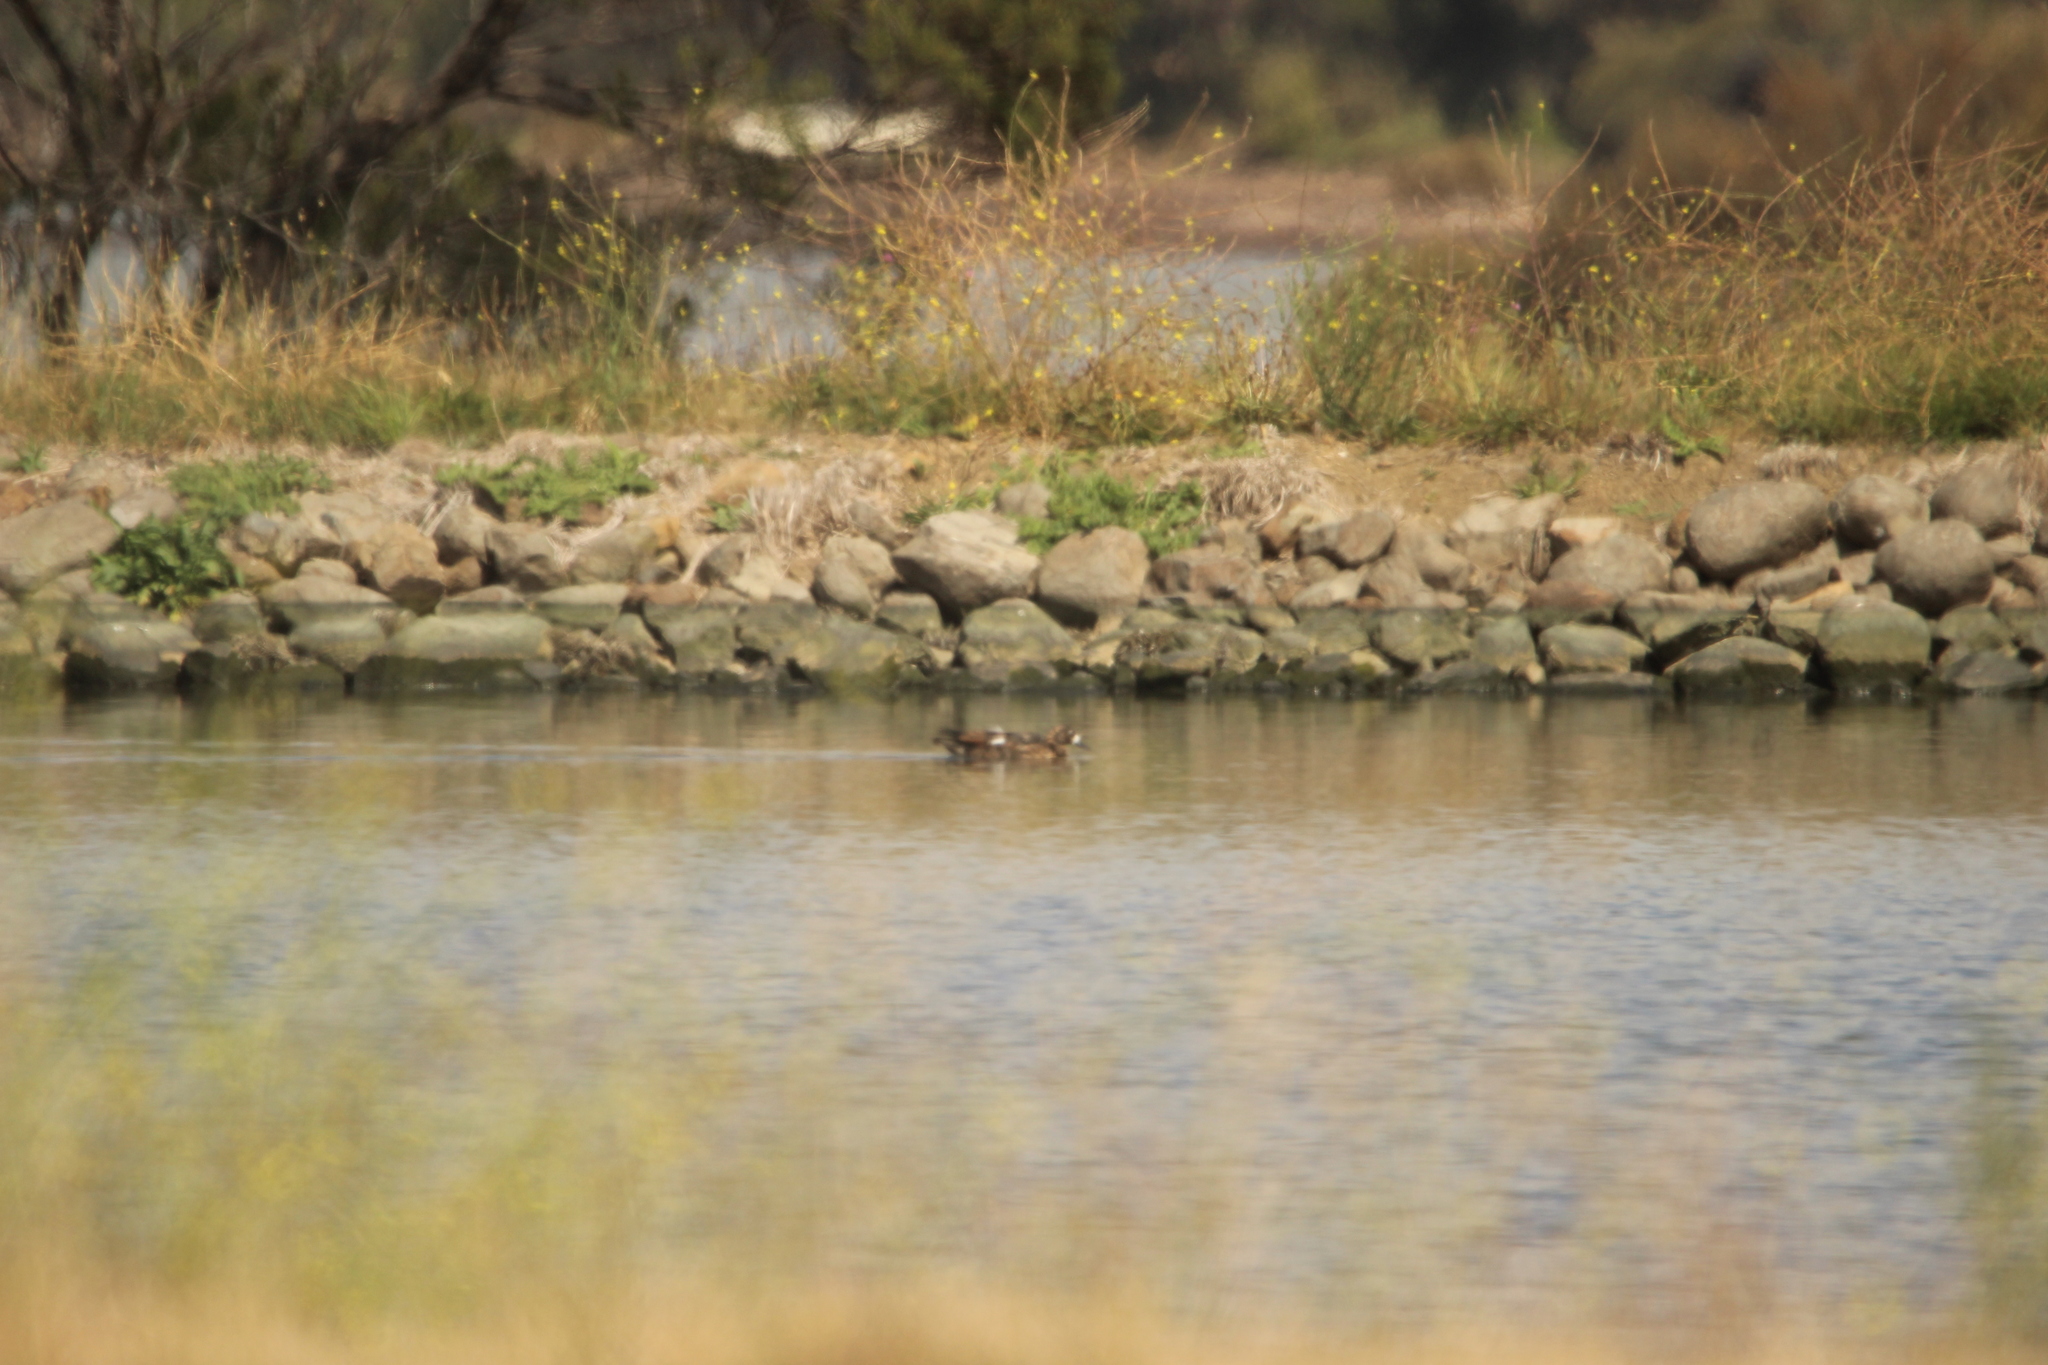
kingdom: Animalia
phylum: Chordata
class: Aves
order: Anseriformes
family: Anatidae
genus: Tadorna
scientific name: Tadorna tadornoides
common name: Australian shelduck
